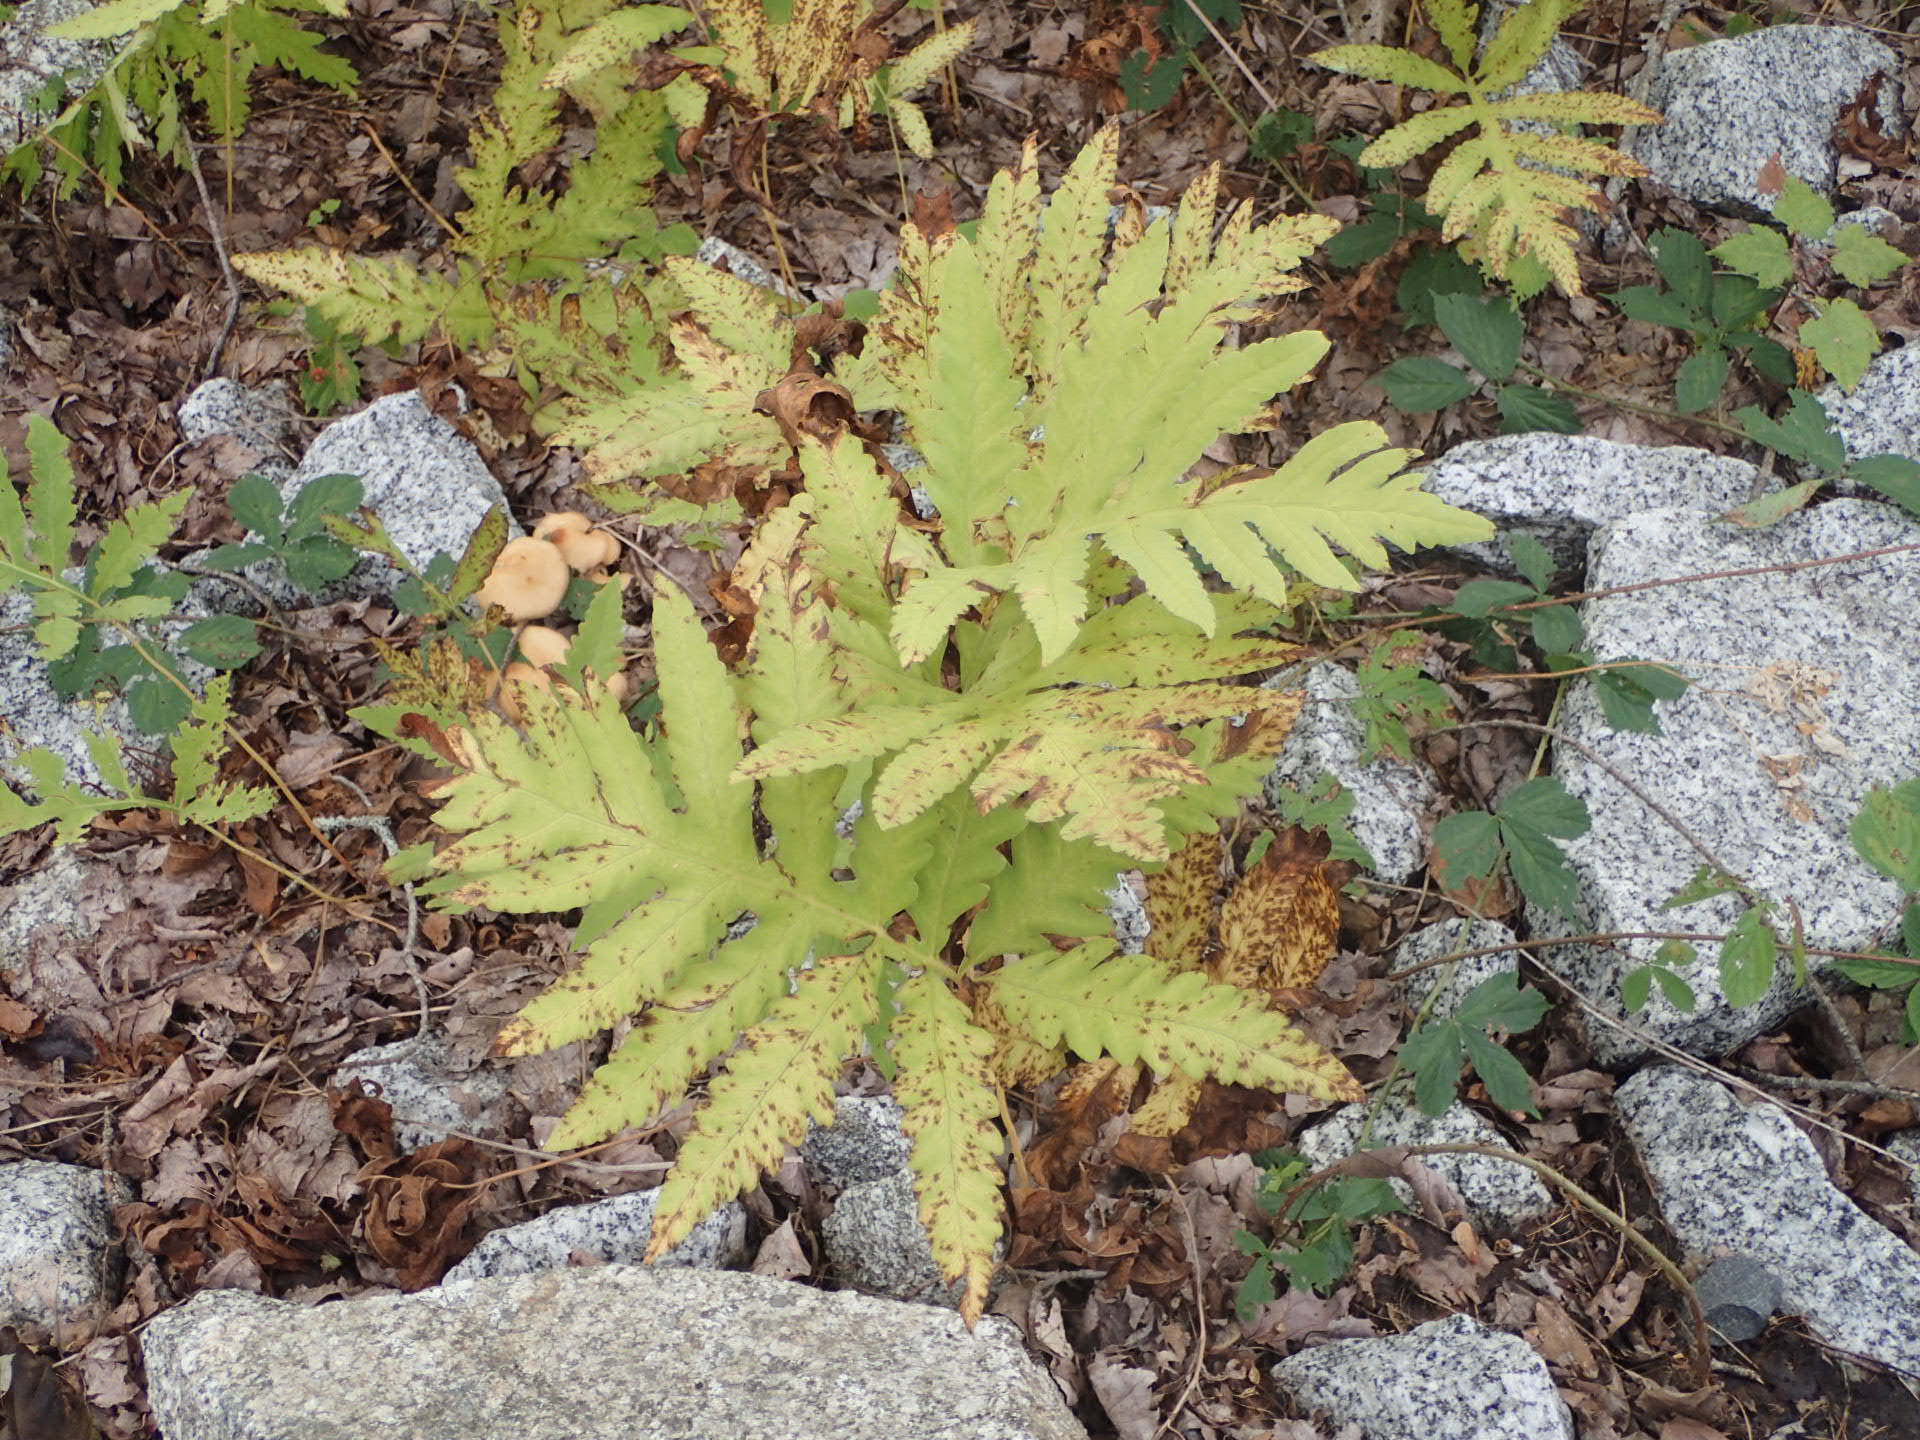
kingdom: Plantae
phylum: Tracheophyta
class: Polypodiopsida
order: Polypodiales
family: Onocleaceae
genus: Onoclea
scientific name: Onoclea sensibilis
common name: Sensitive fern
